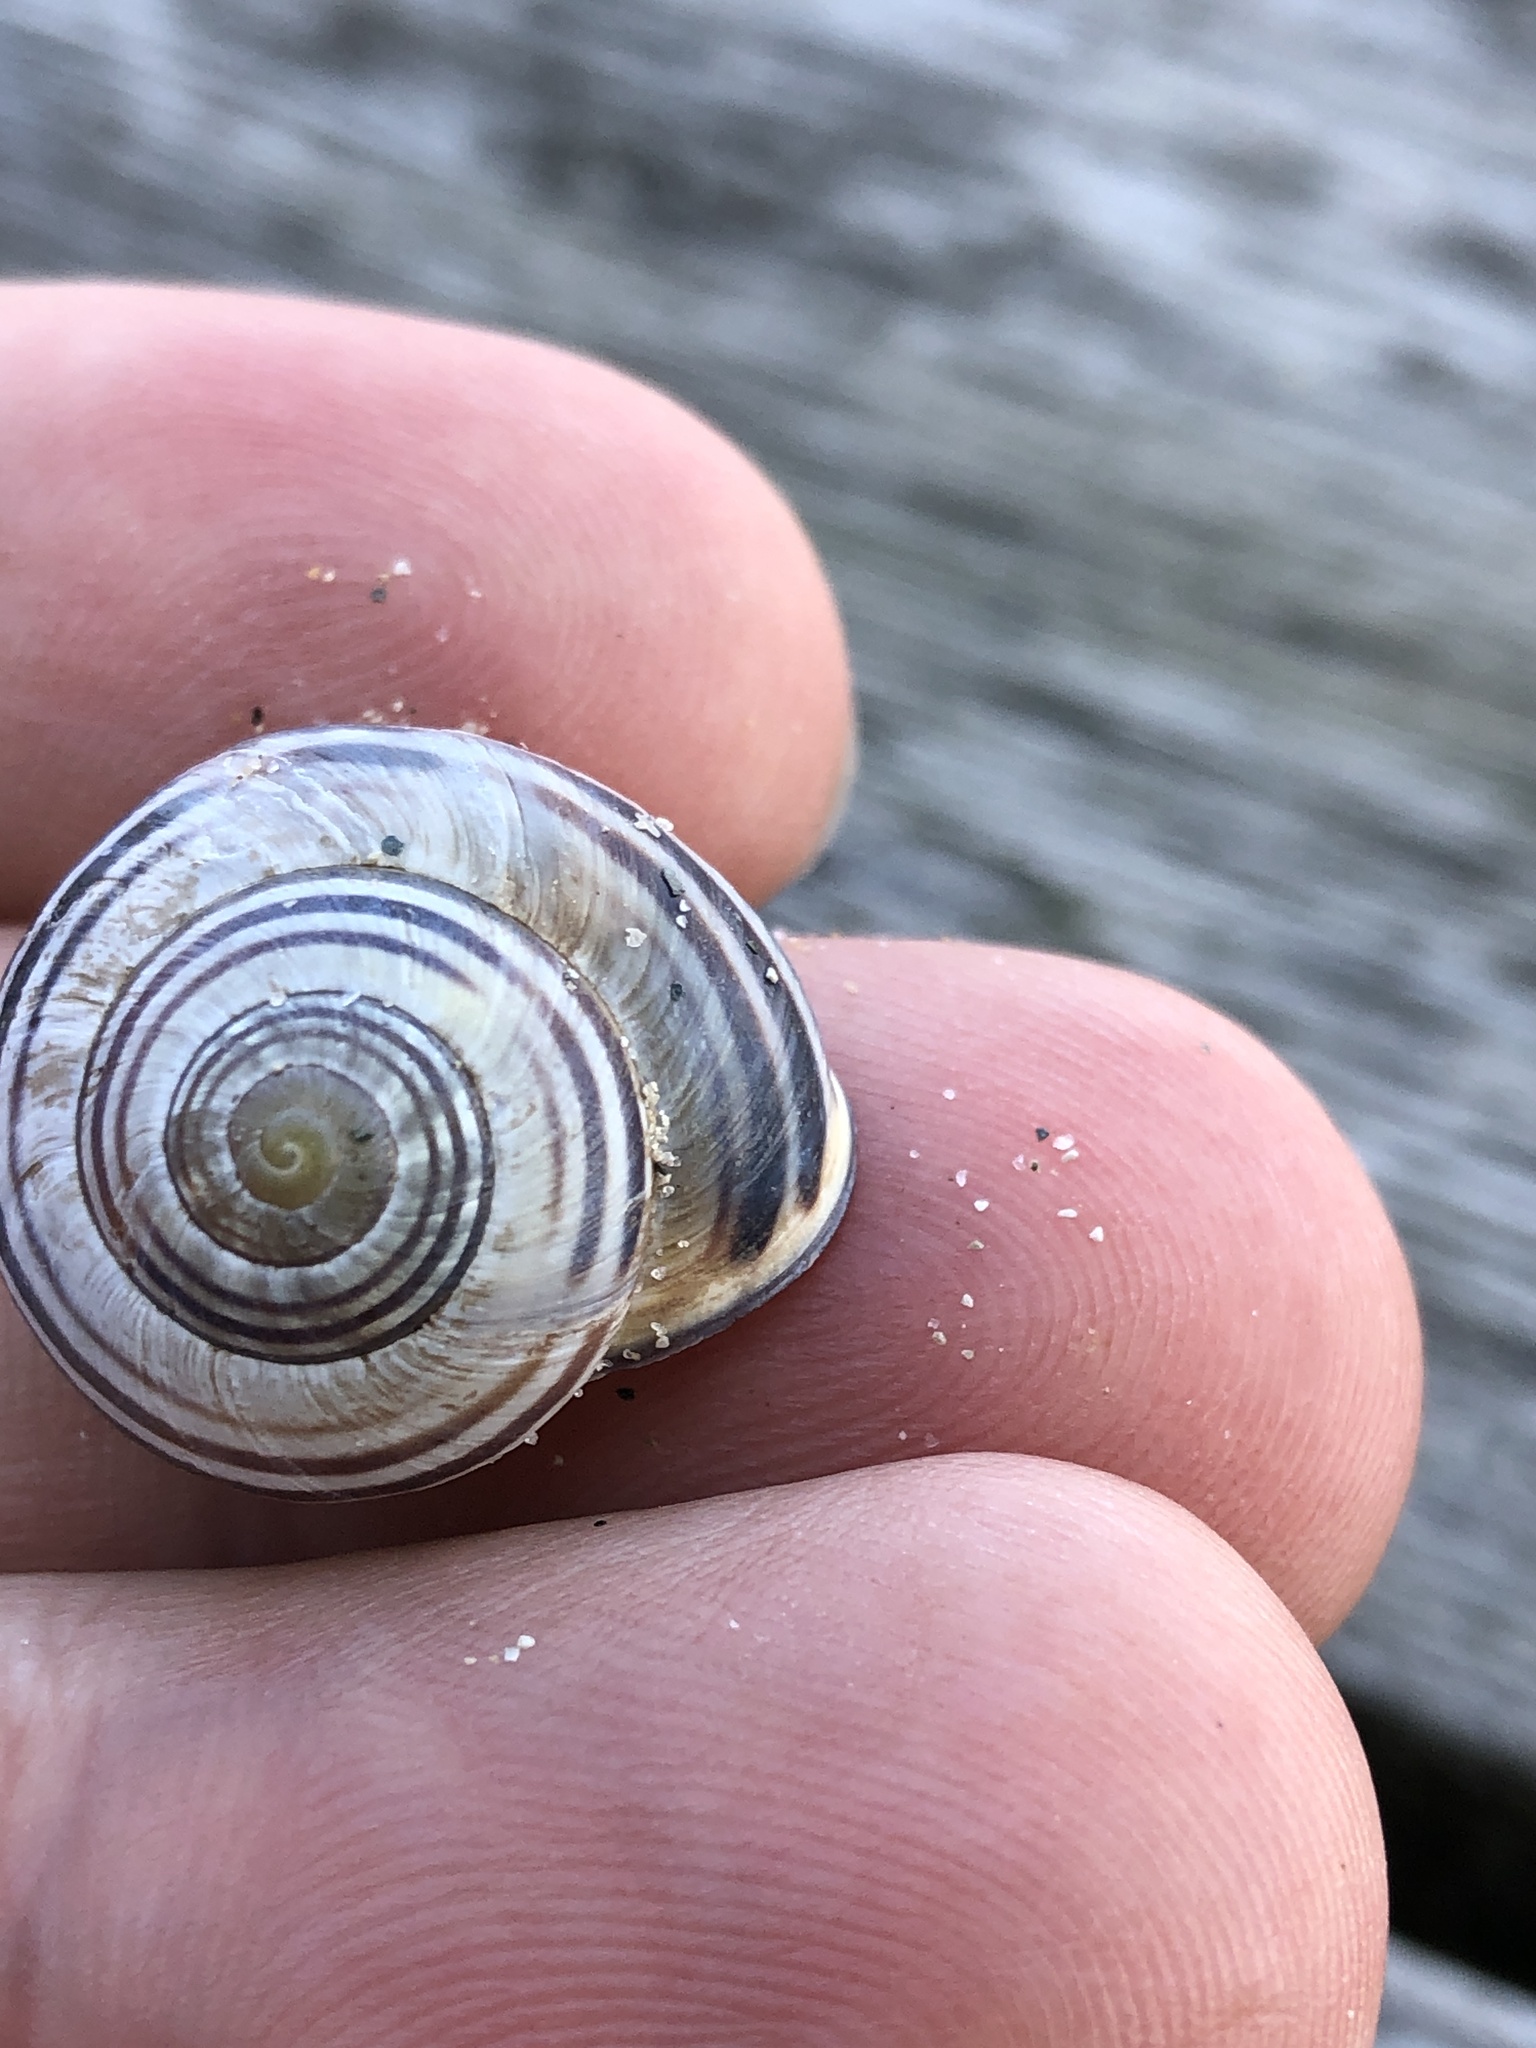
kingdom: Animalia
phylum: Mollusca
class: Gastropoda
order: Stylommatophora
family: Helicidae
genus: Cepaea
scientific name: Cepaea nemoralis
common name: Grovesnail
